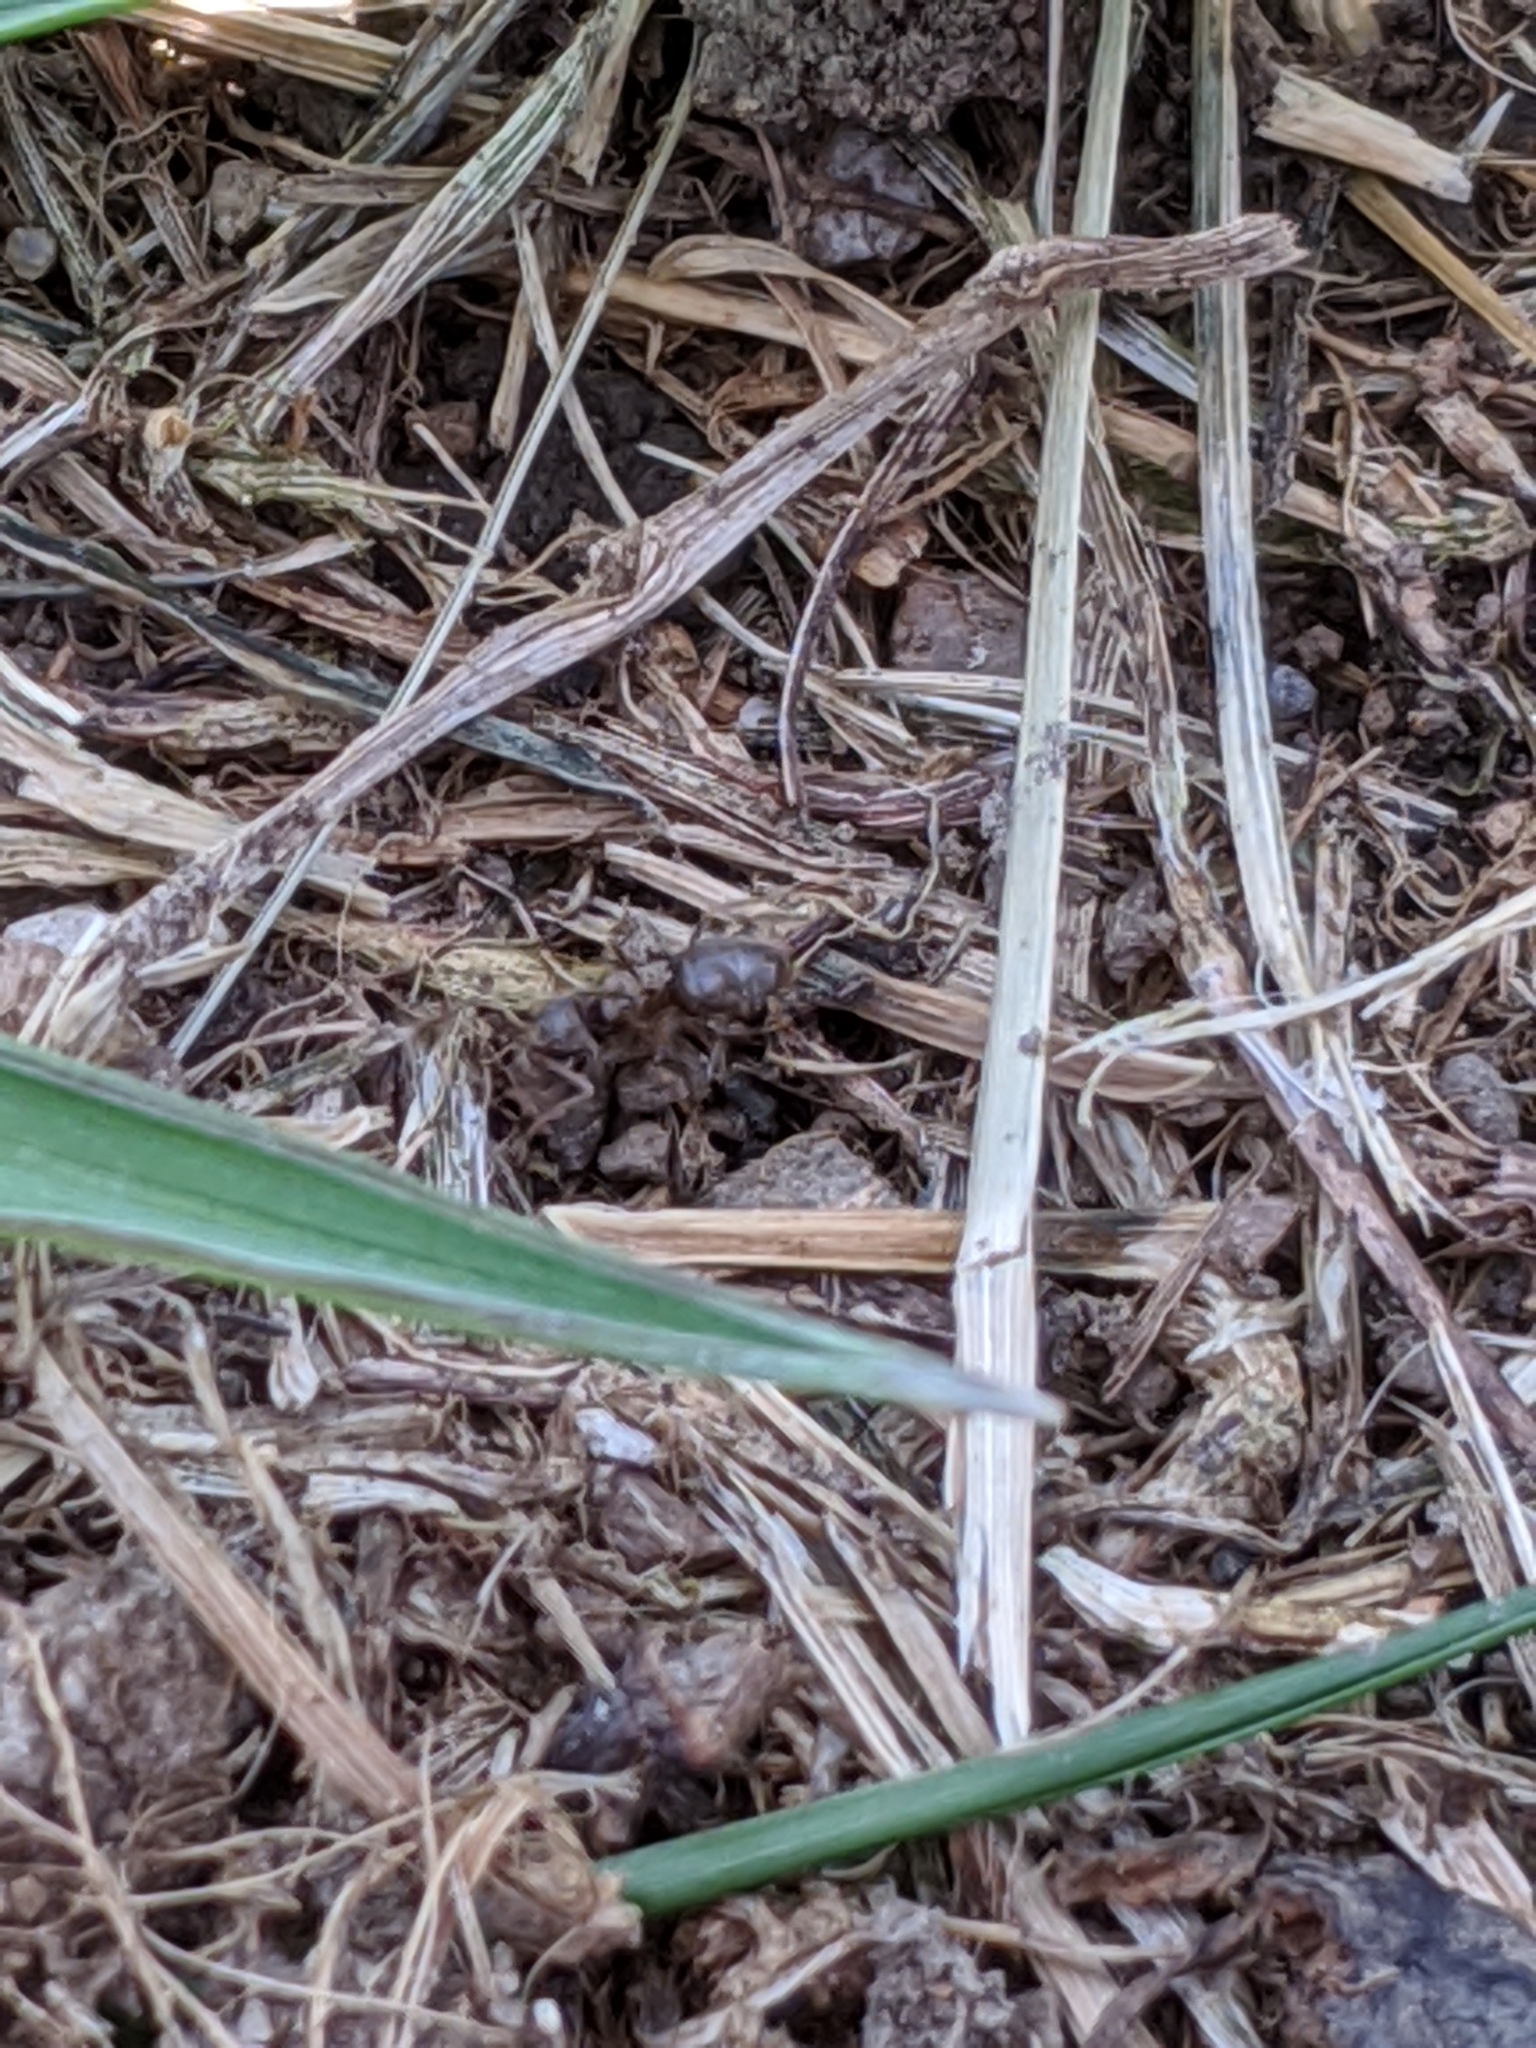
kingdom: Animalia
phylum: Arthropoda
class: Insecta
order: Hymenoptera
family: Formicidae
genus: Lasius
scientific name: Lasius
